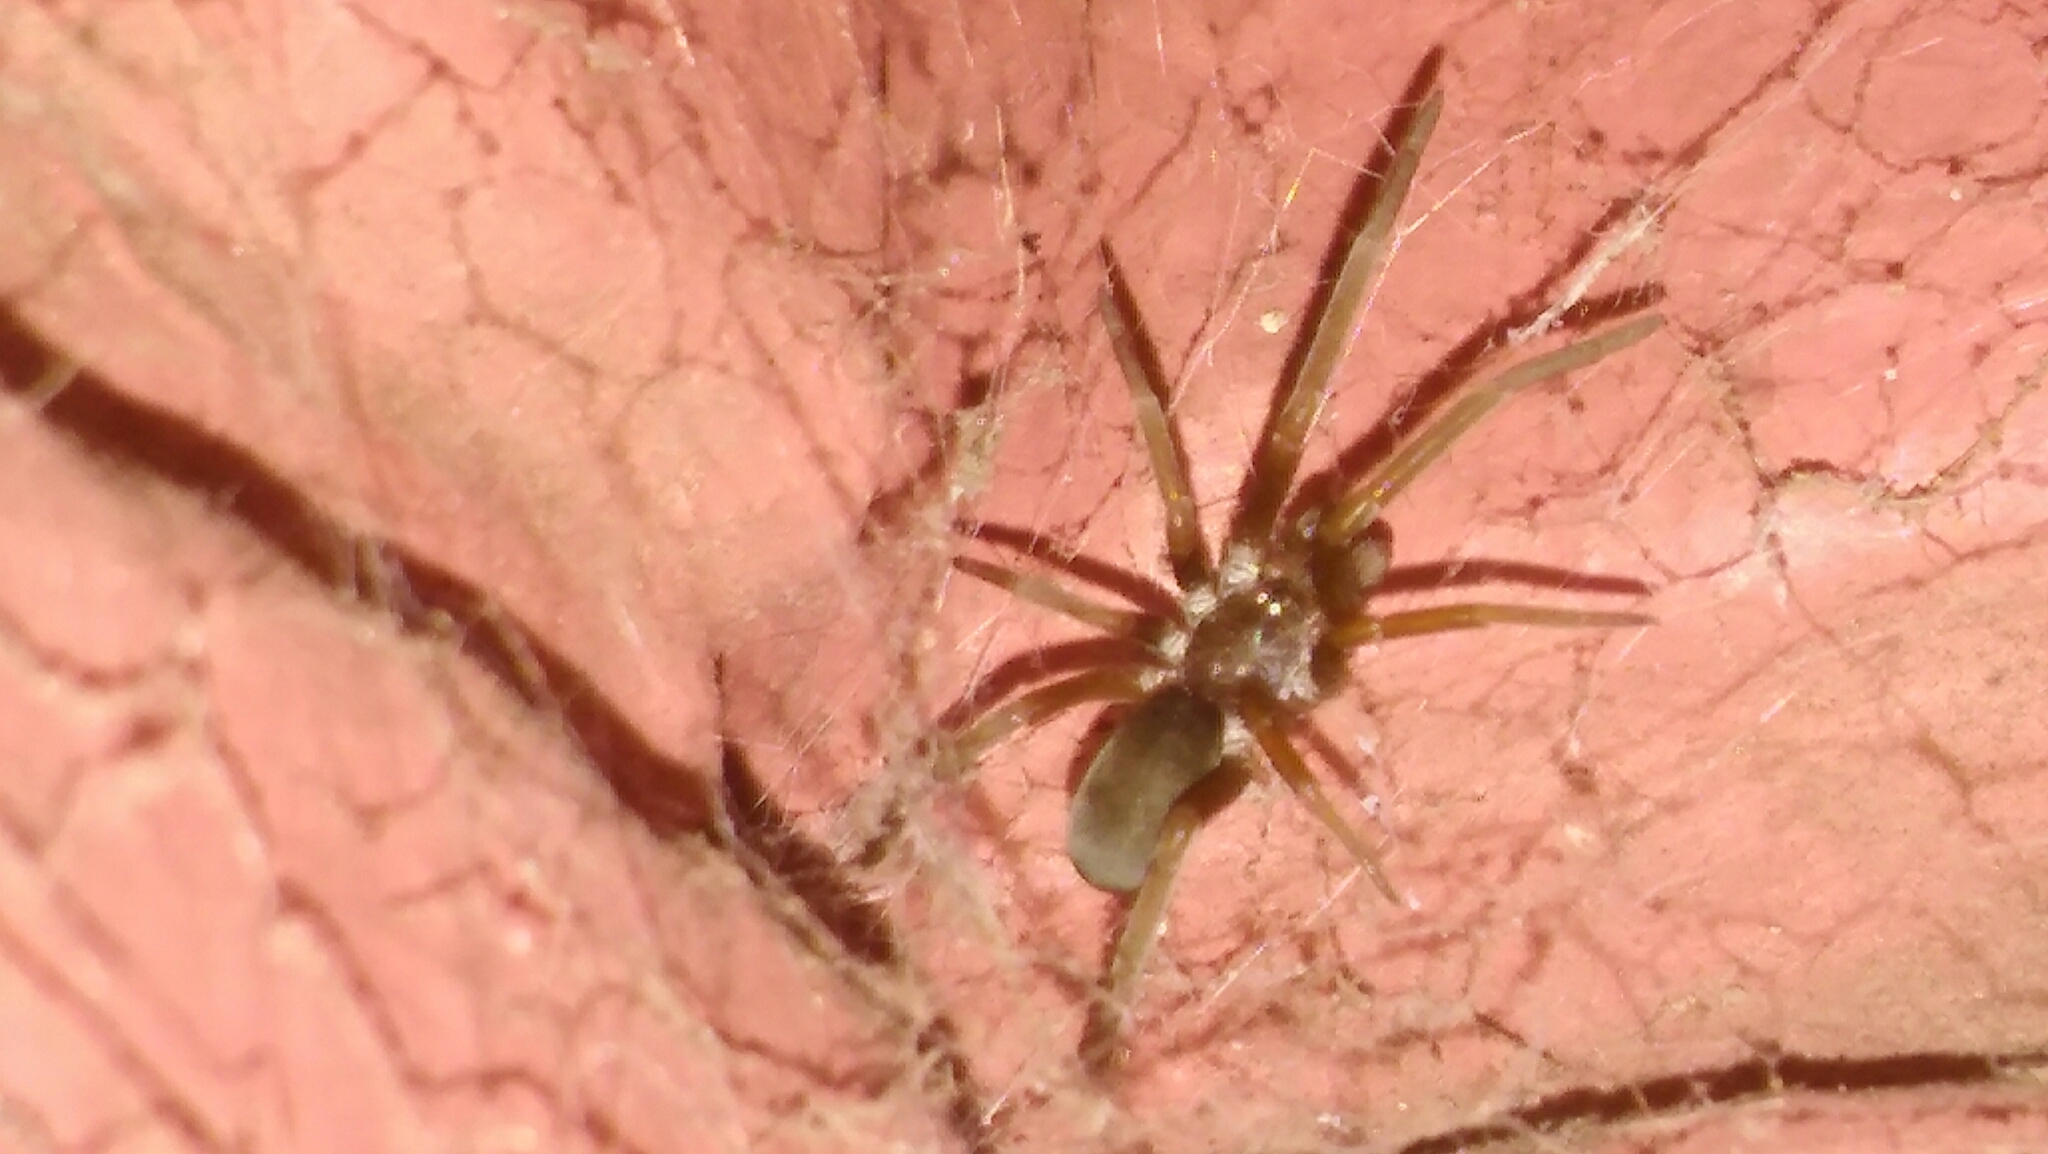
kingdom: Animalia
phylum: Arthropoda
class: Arachnida
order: Araneae
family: Filistatidae
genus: Kukulcania
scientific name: Kukulcania hibernalis
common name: Crevice weaver
